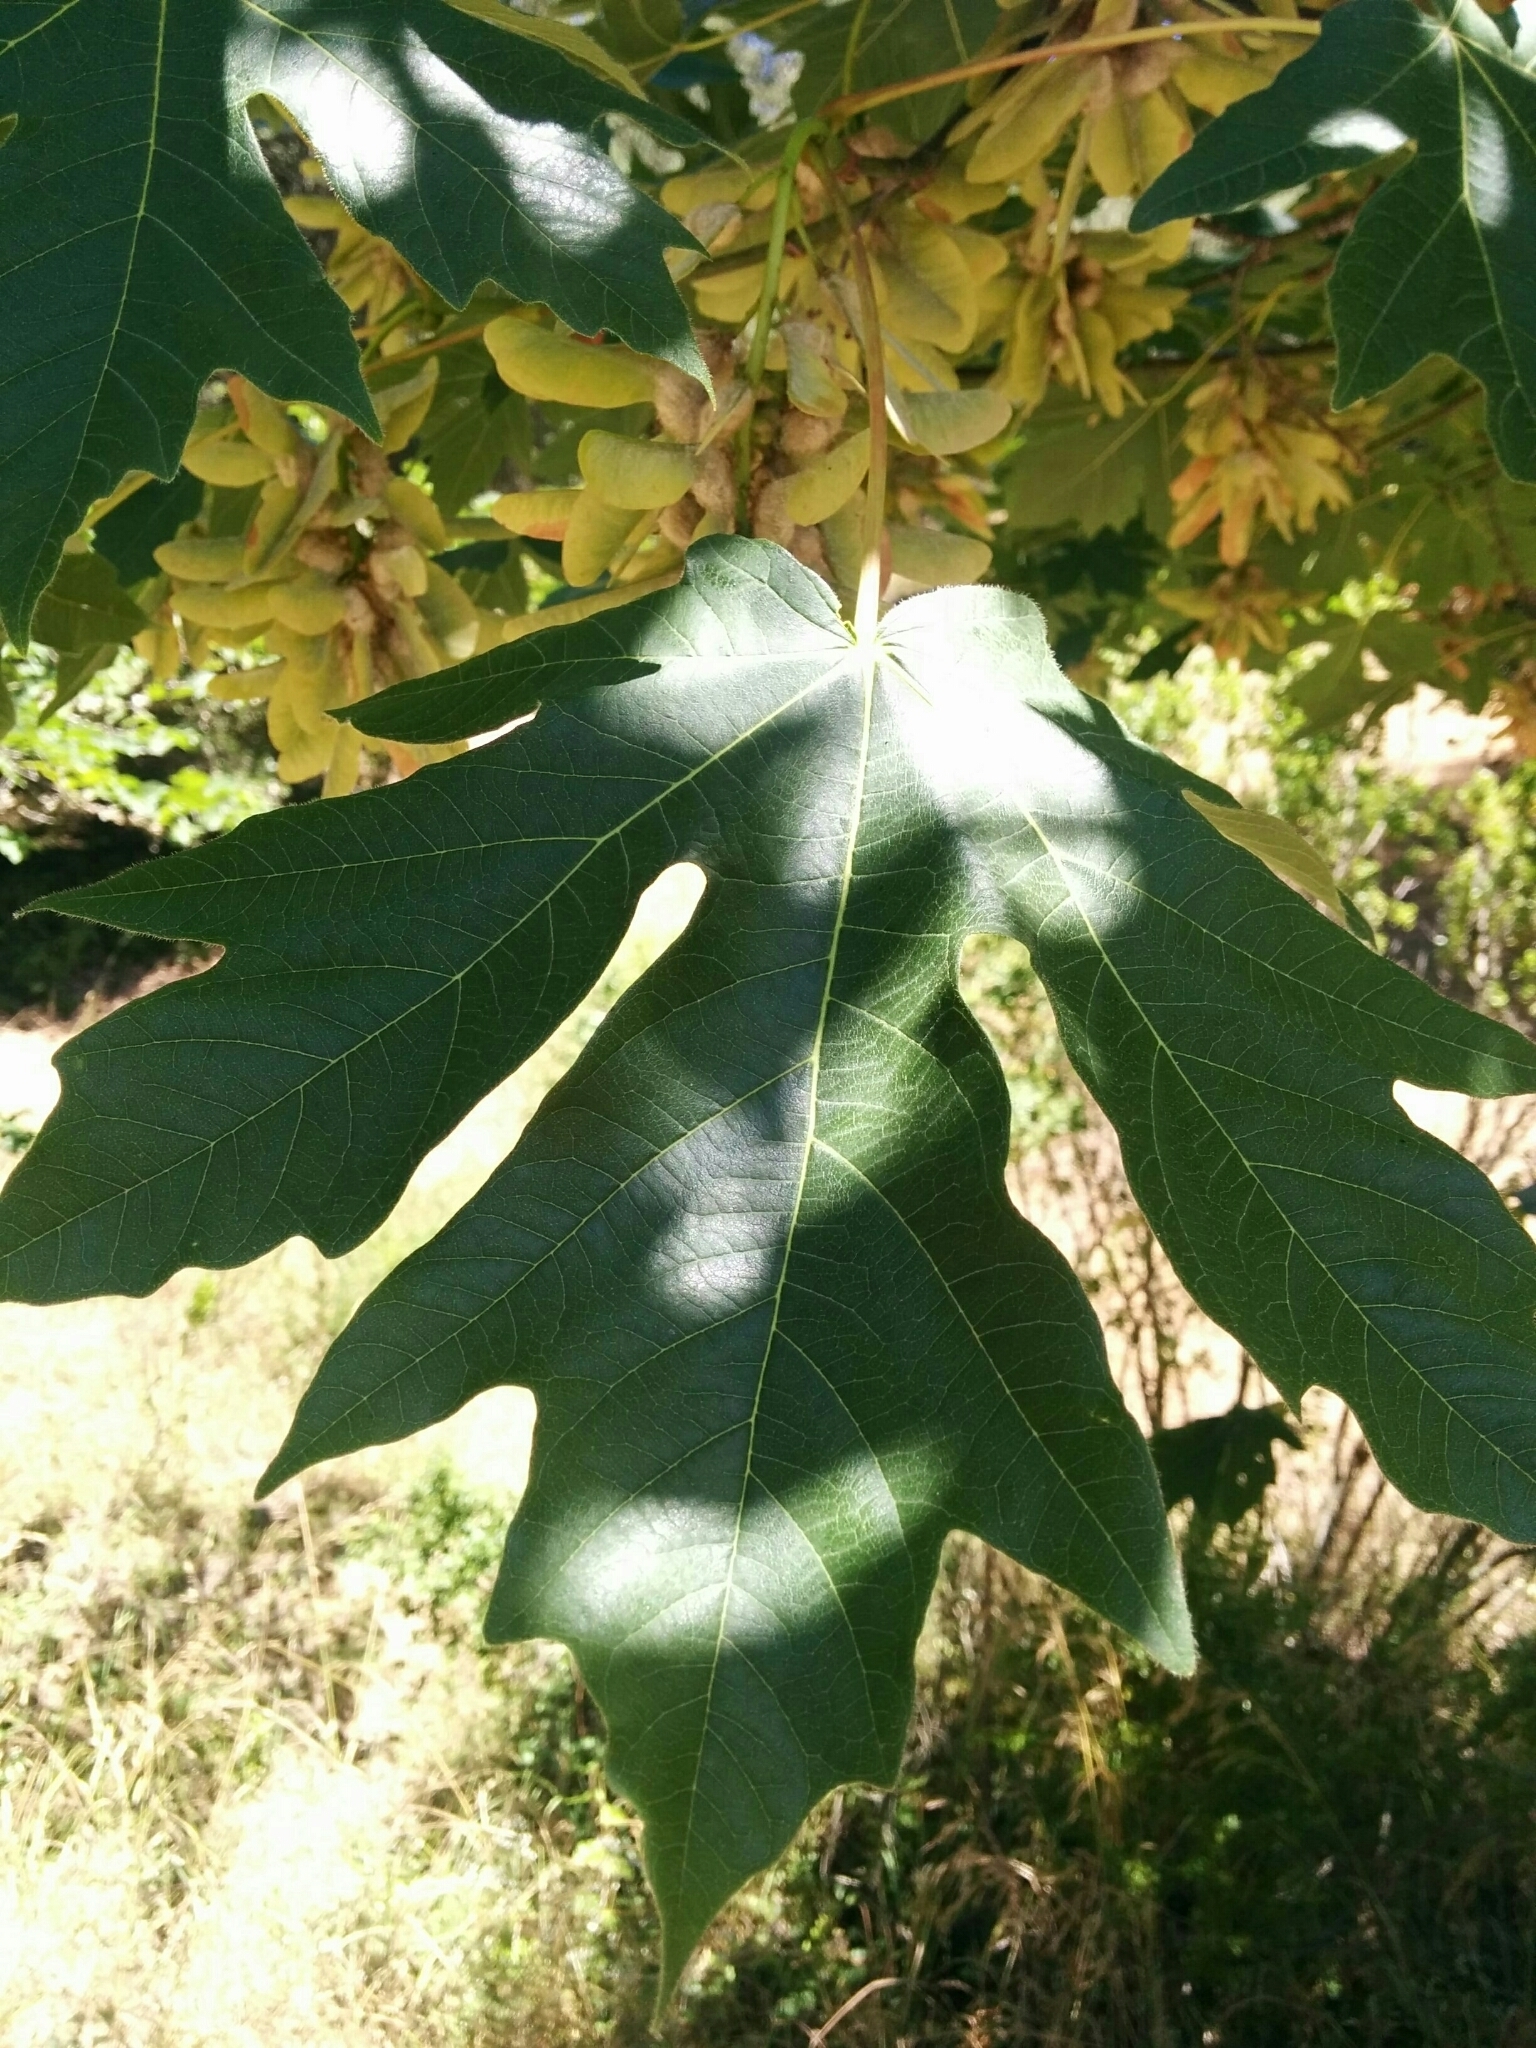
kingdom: Plantae
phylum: Tracheophyta
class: Magnoliopsida
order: Sapindales
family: Sapindaceae
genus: Acer
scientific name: Acer macrophyllum
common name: Oregon maple
